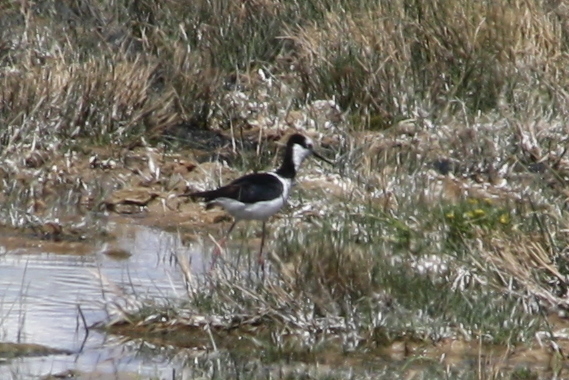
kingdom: Animalia
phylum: Chordata
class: Aves
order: Charadriiformes
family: Recurvirostridae
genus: Himantopus
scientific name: Himantopus mexicanus
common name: Black-necked stilt
